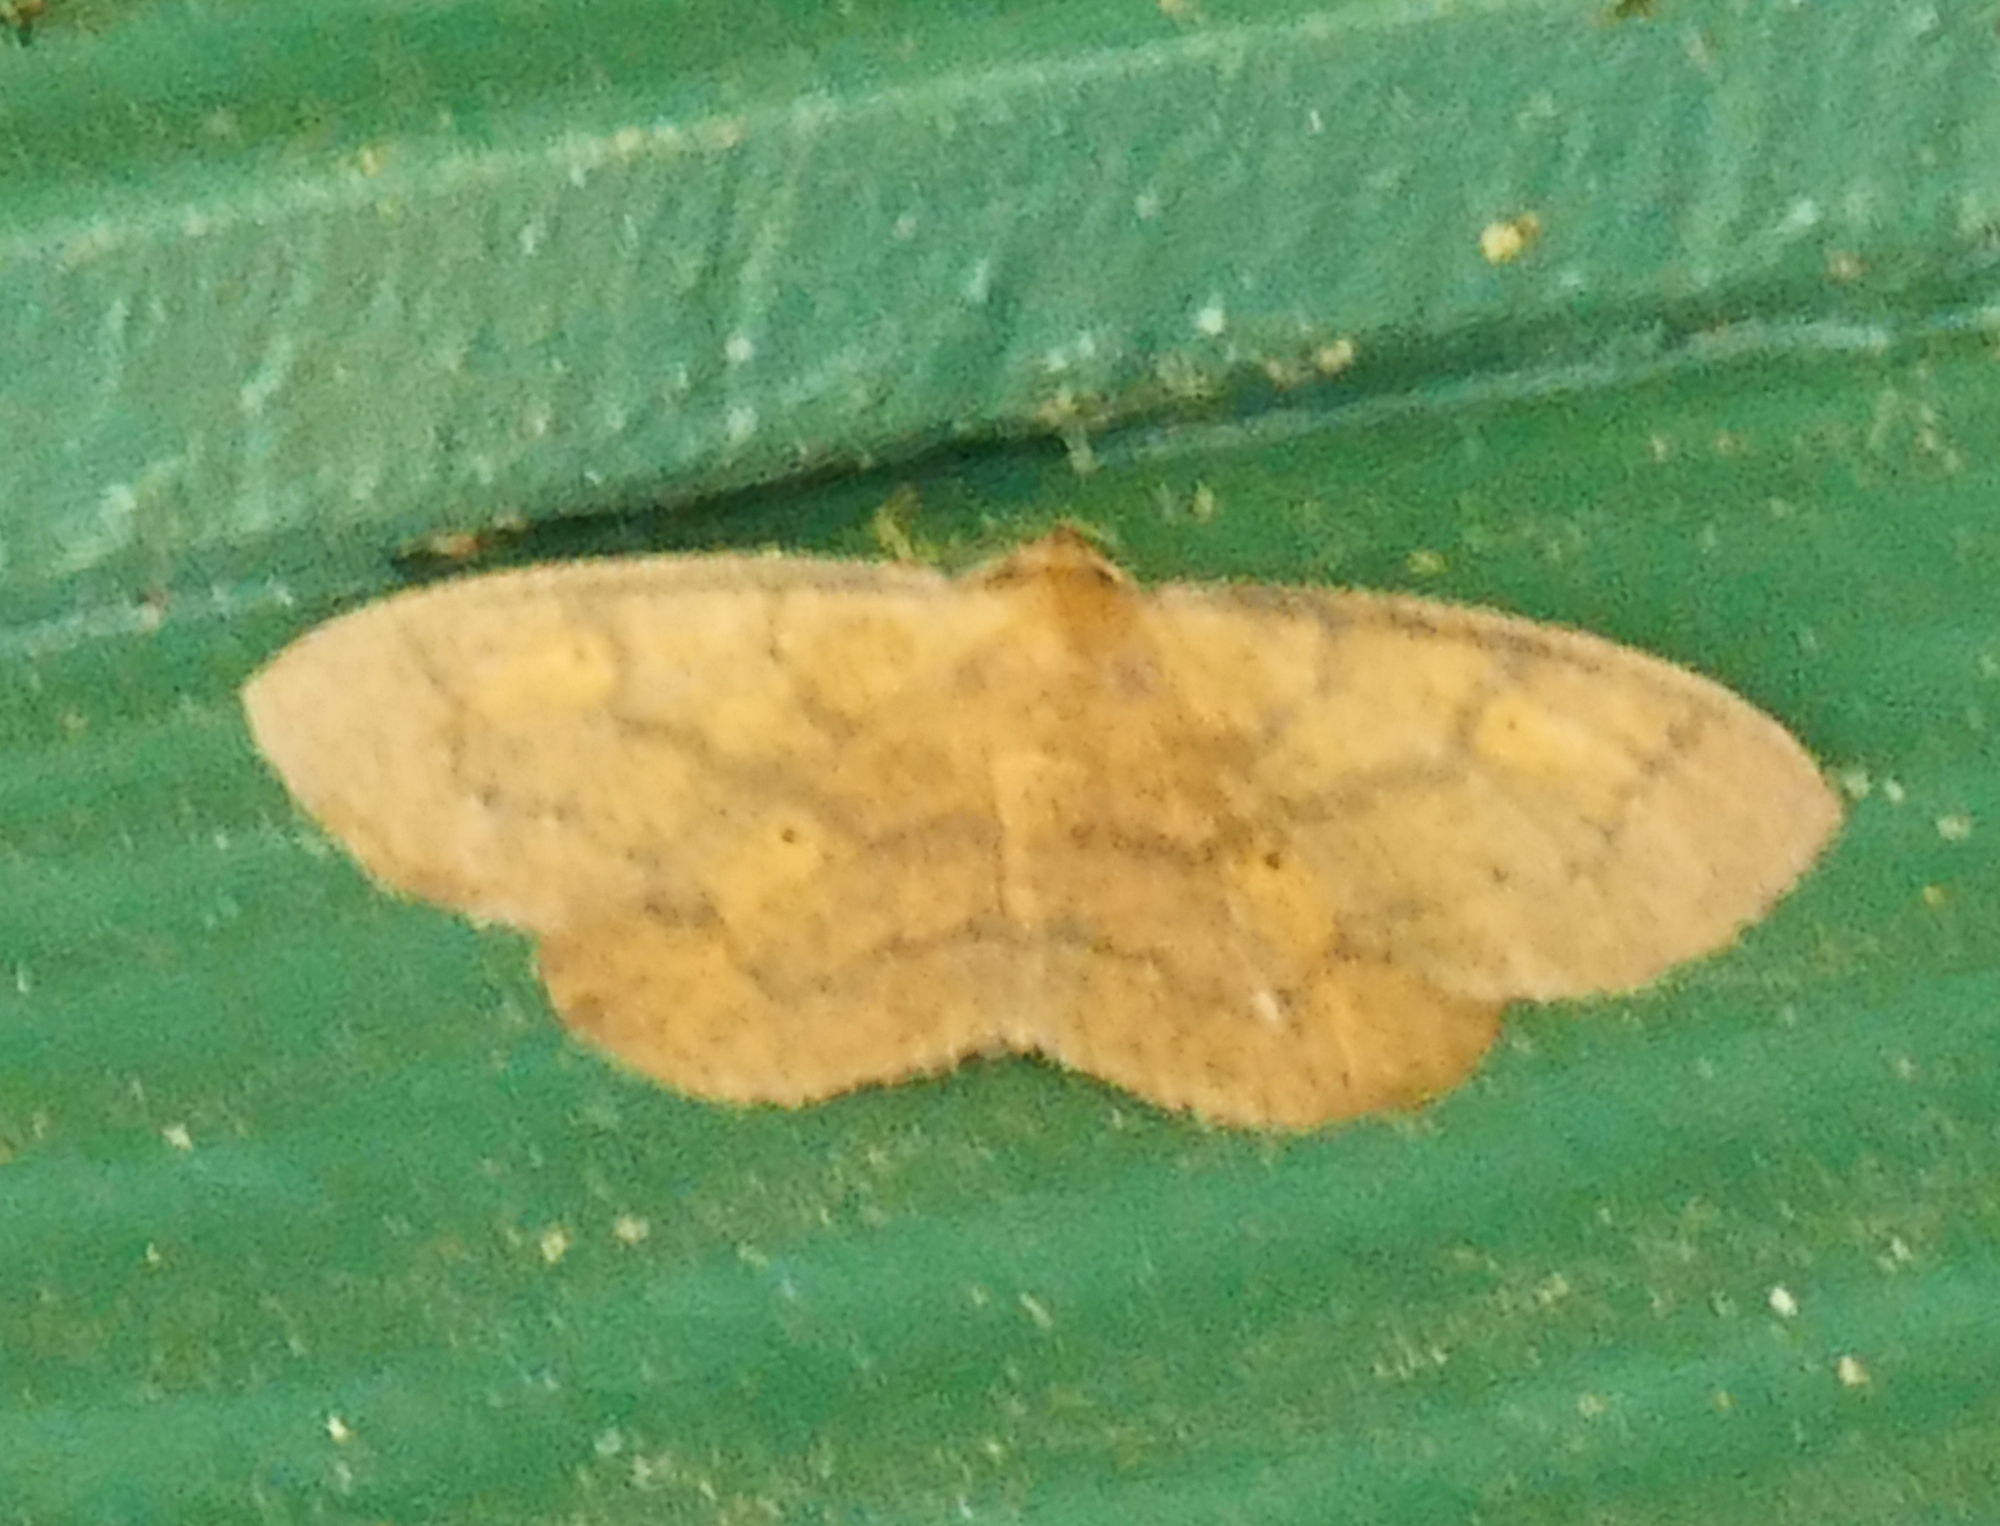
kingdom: Animalia
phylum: Arthropoda
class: Insecta
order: Lepidoptera
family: Geometridae
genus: Ilexia
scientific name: Ilexia intractata
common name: Black-dotted ruddy moth
